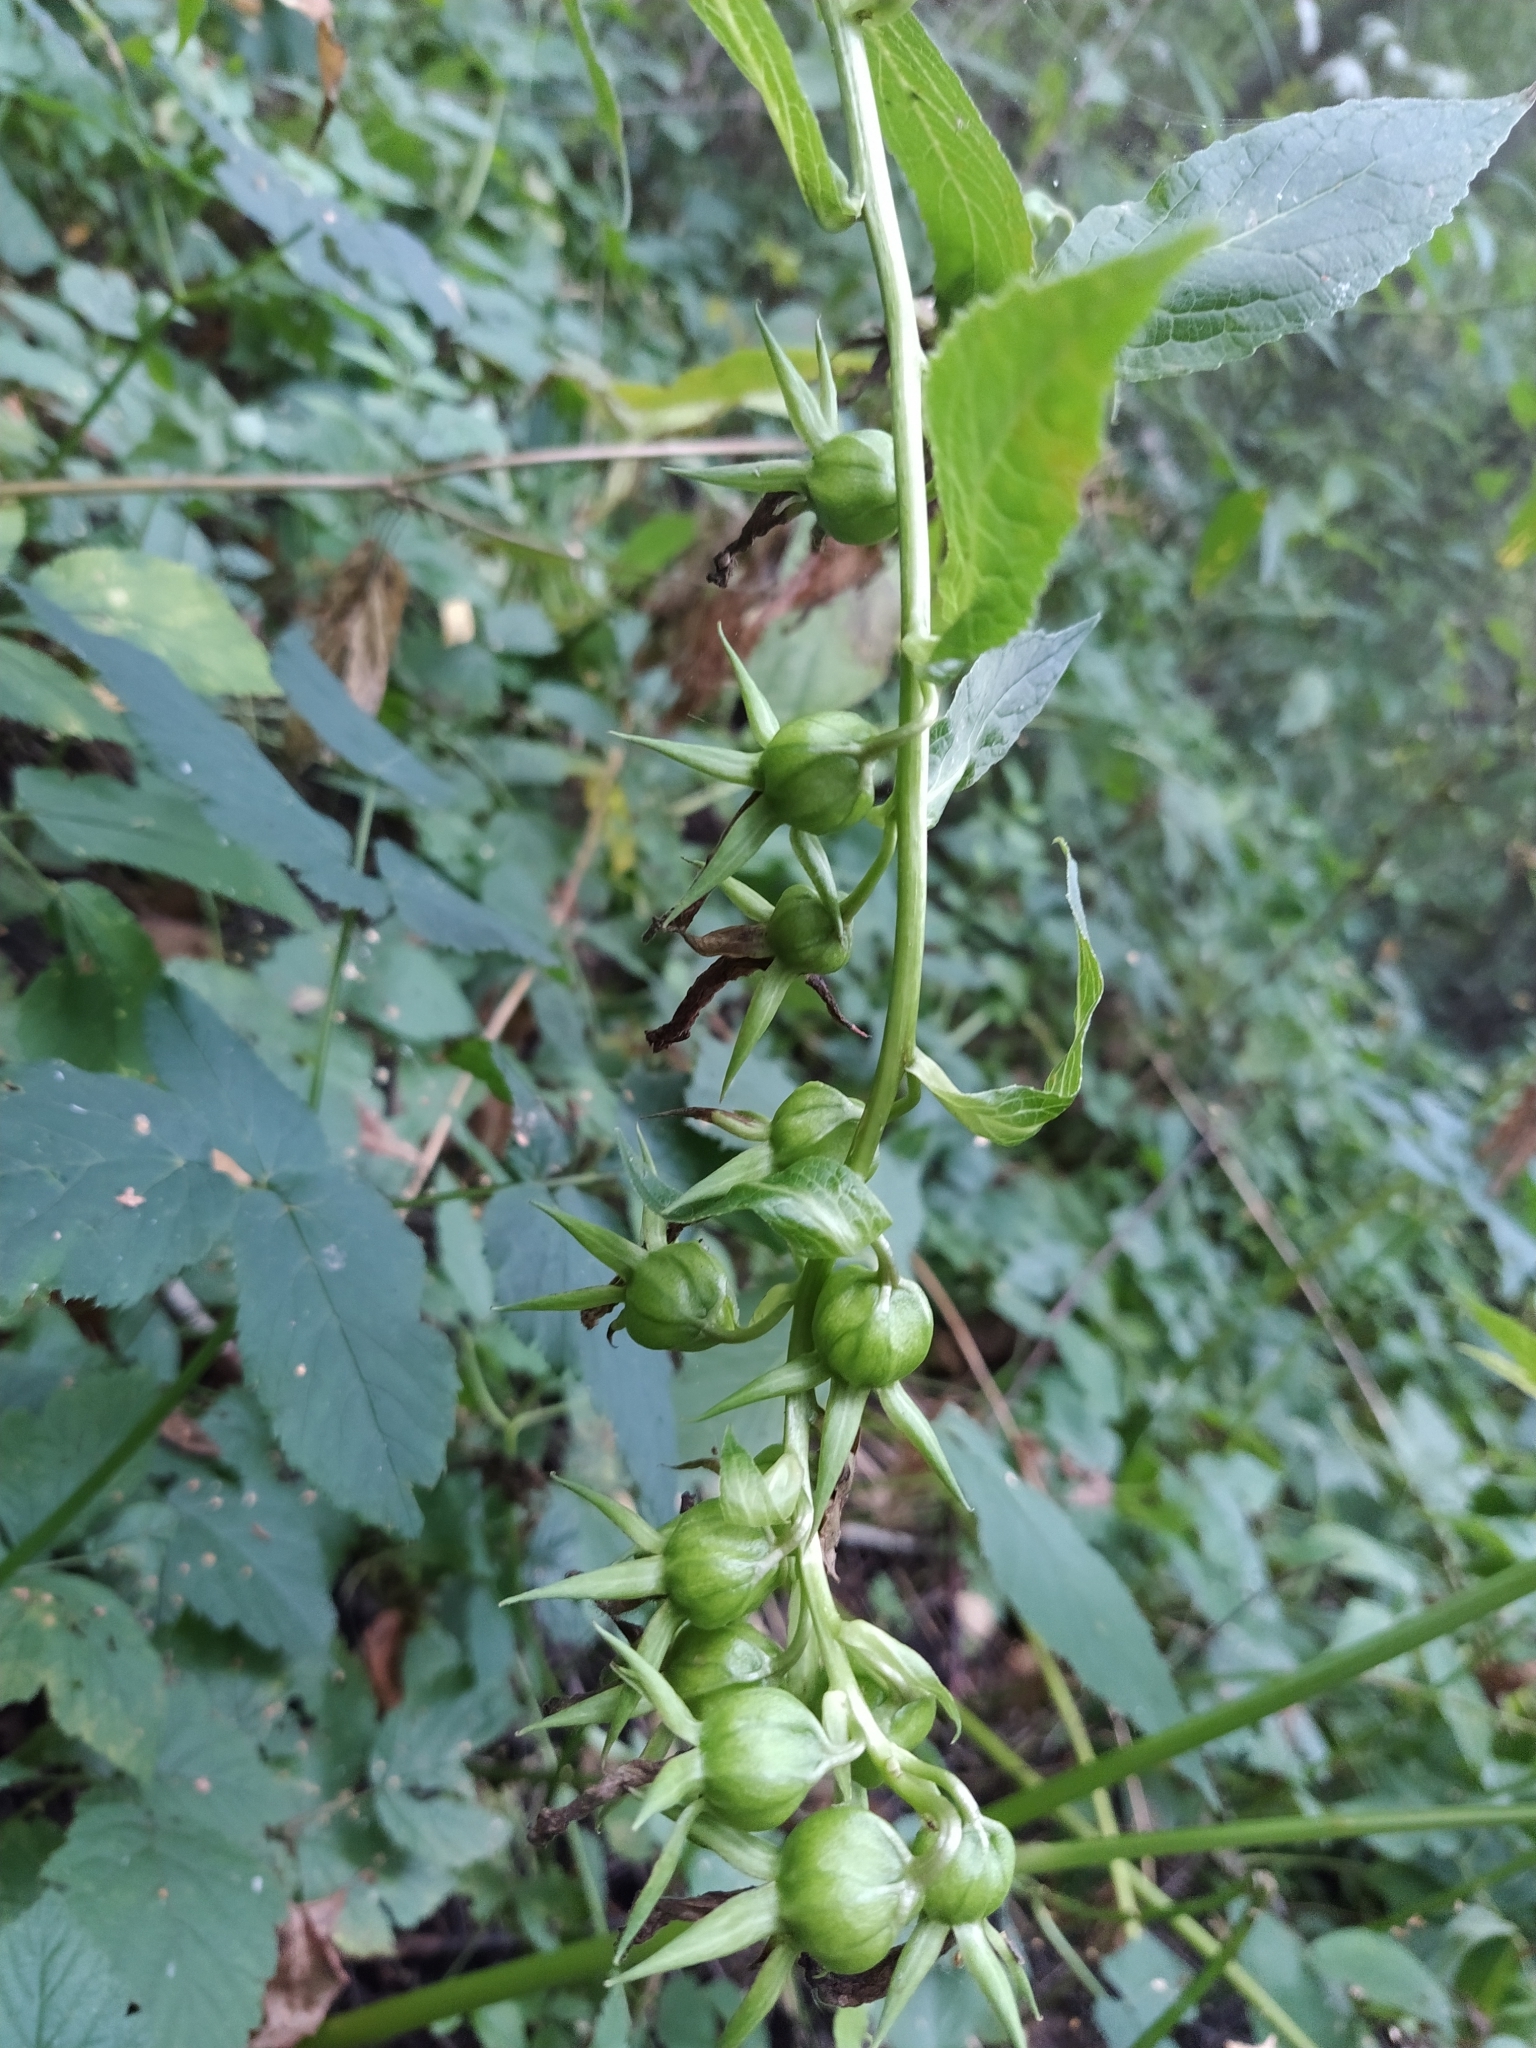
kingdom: Plantae
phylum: Tracheophyta
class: Magnoliopsida
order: Asterales
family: Campanulaceae
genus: Campanula
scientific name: Campanula latifolia
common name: Giant bellflower
